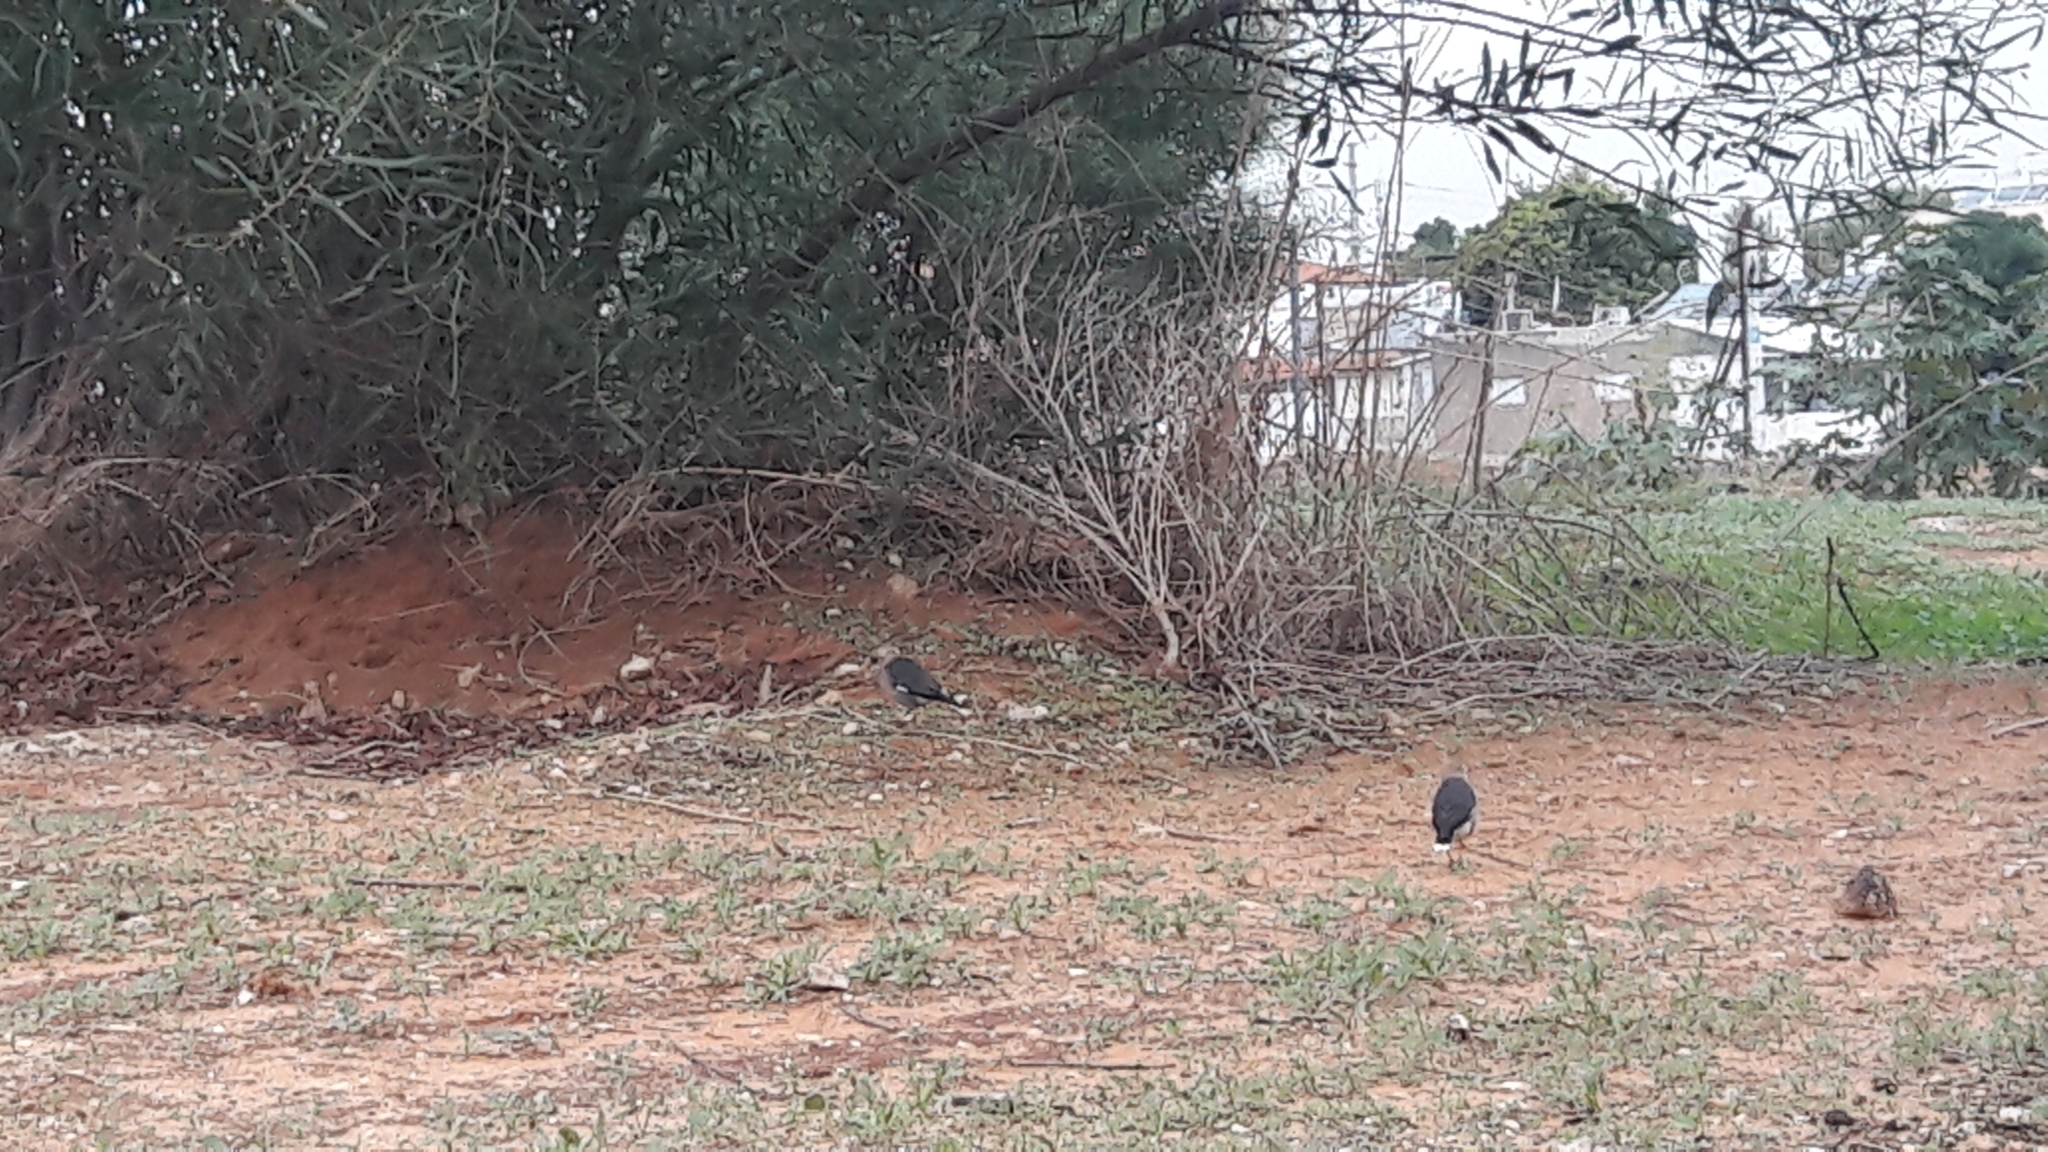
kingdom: Animalia
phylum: Chordata
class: Aves
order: Passeriformes
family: Sturnidae
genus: Acridotheres
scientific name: Acridotheres leucocephalus
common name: Vinous-breasted myna
